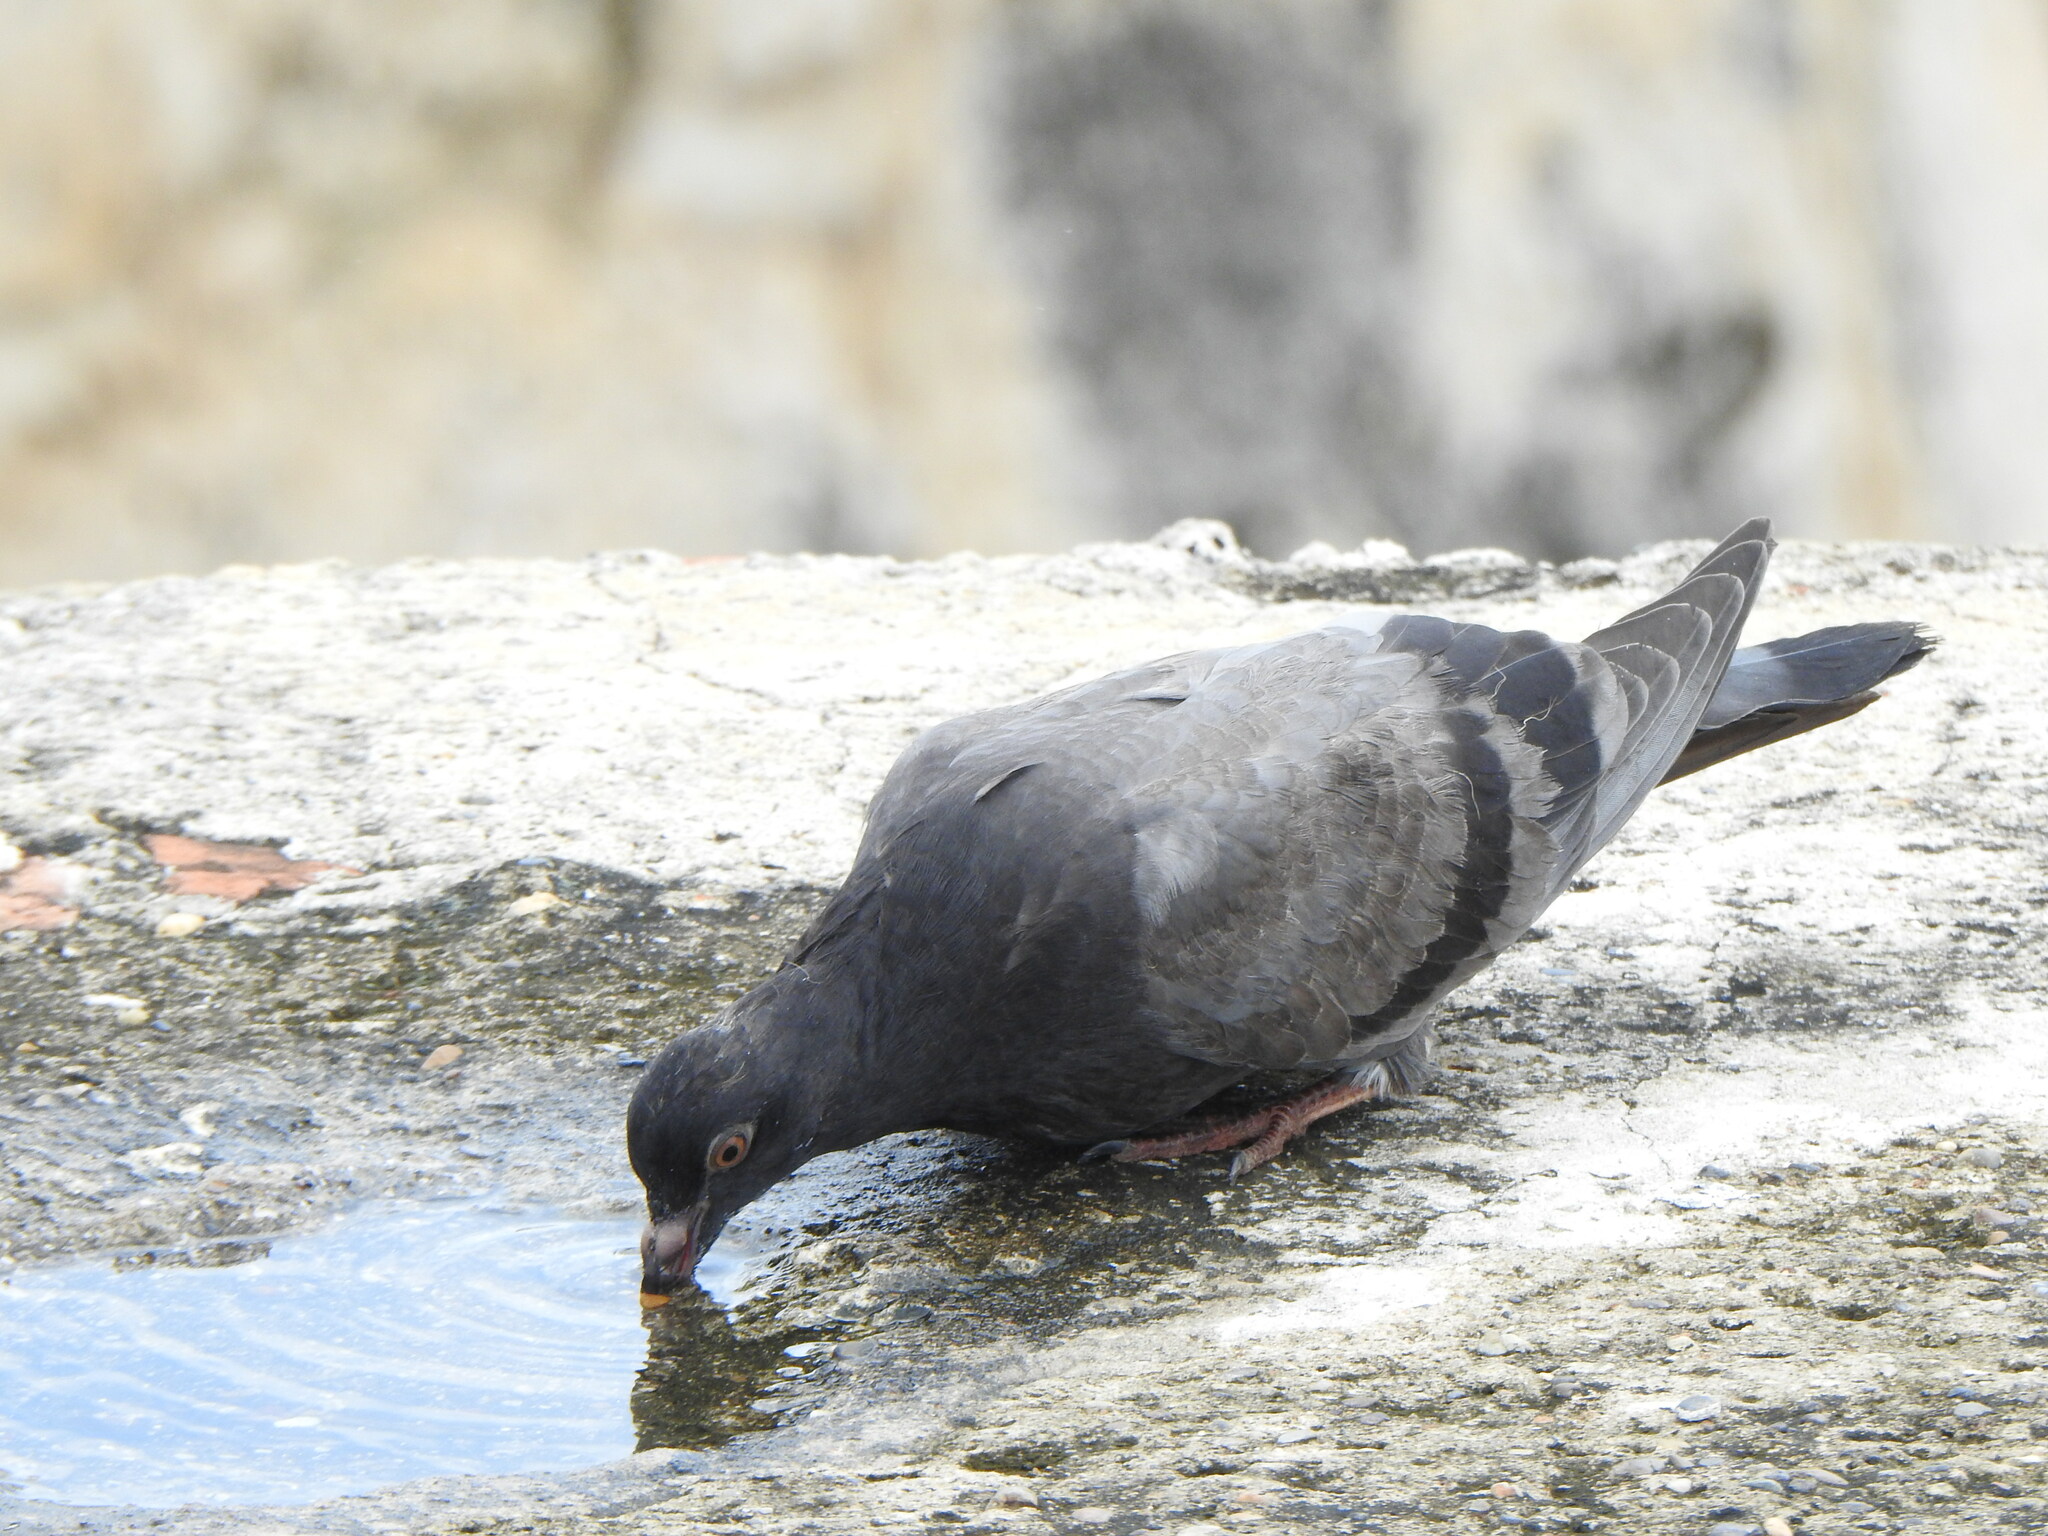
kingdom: Animalia
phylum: Chordata
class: Aves
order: Columbiformes
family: Columbidae
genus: Columba
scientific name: Columba livia
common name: Rock pigeon
